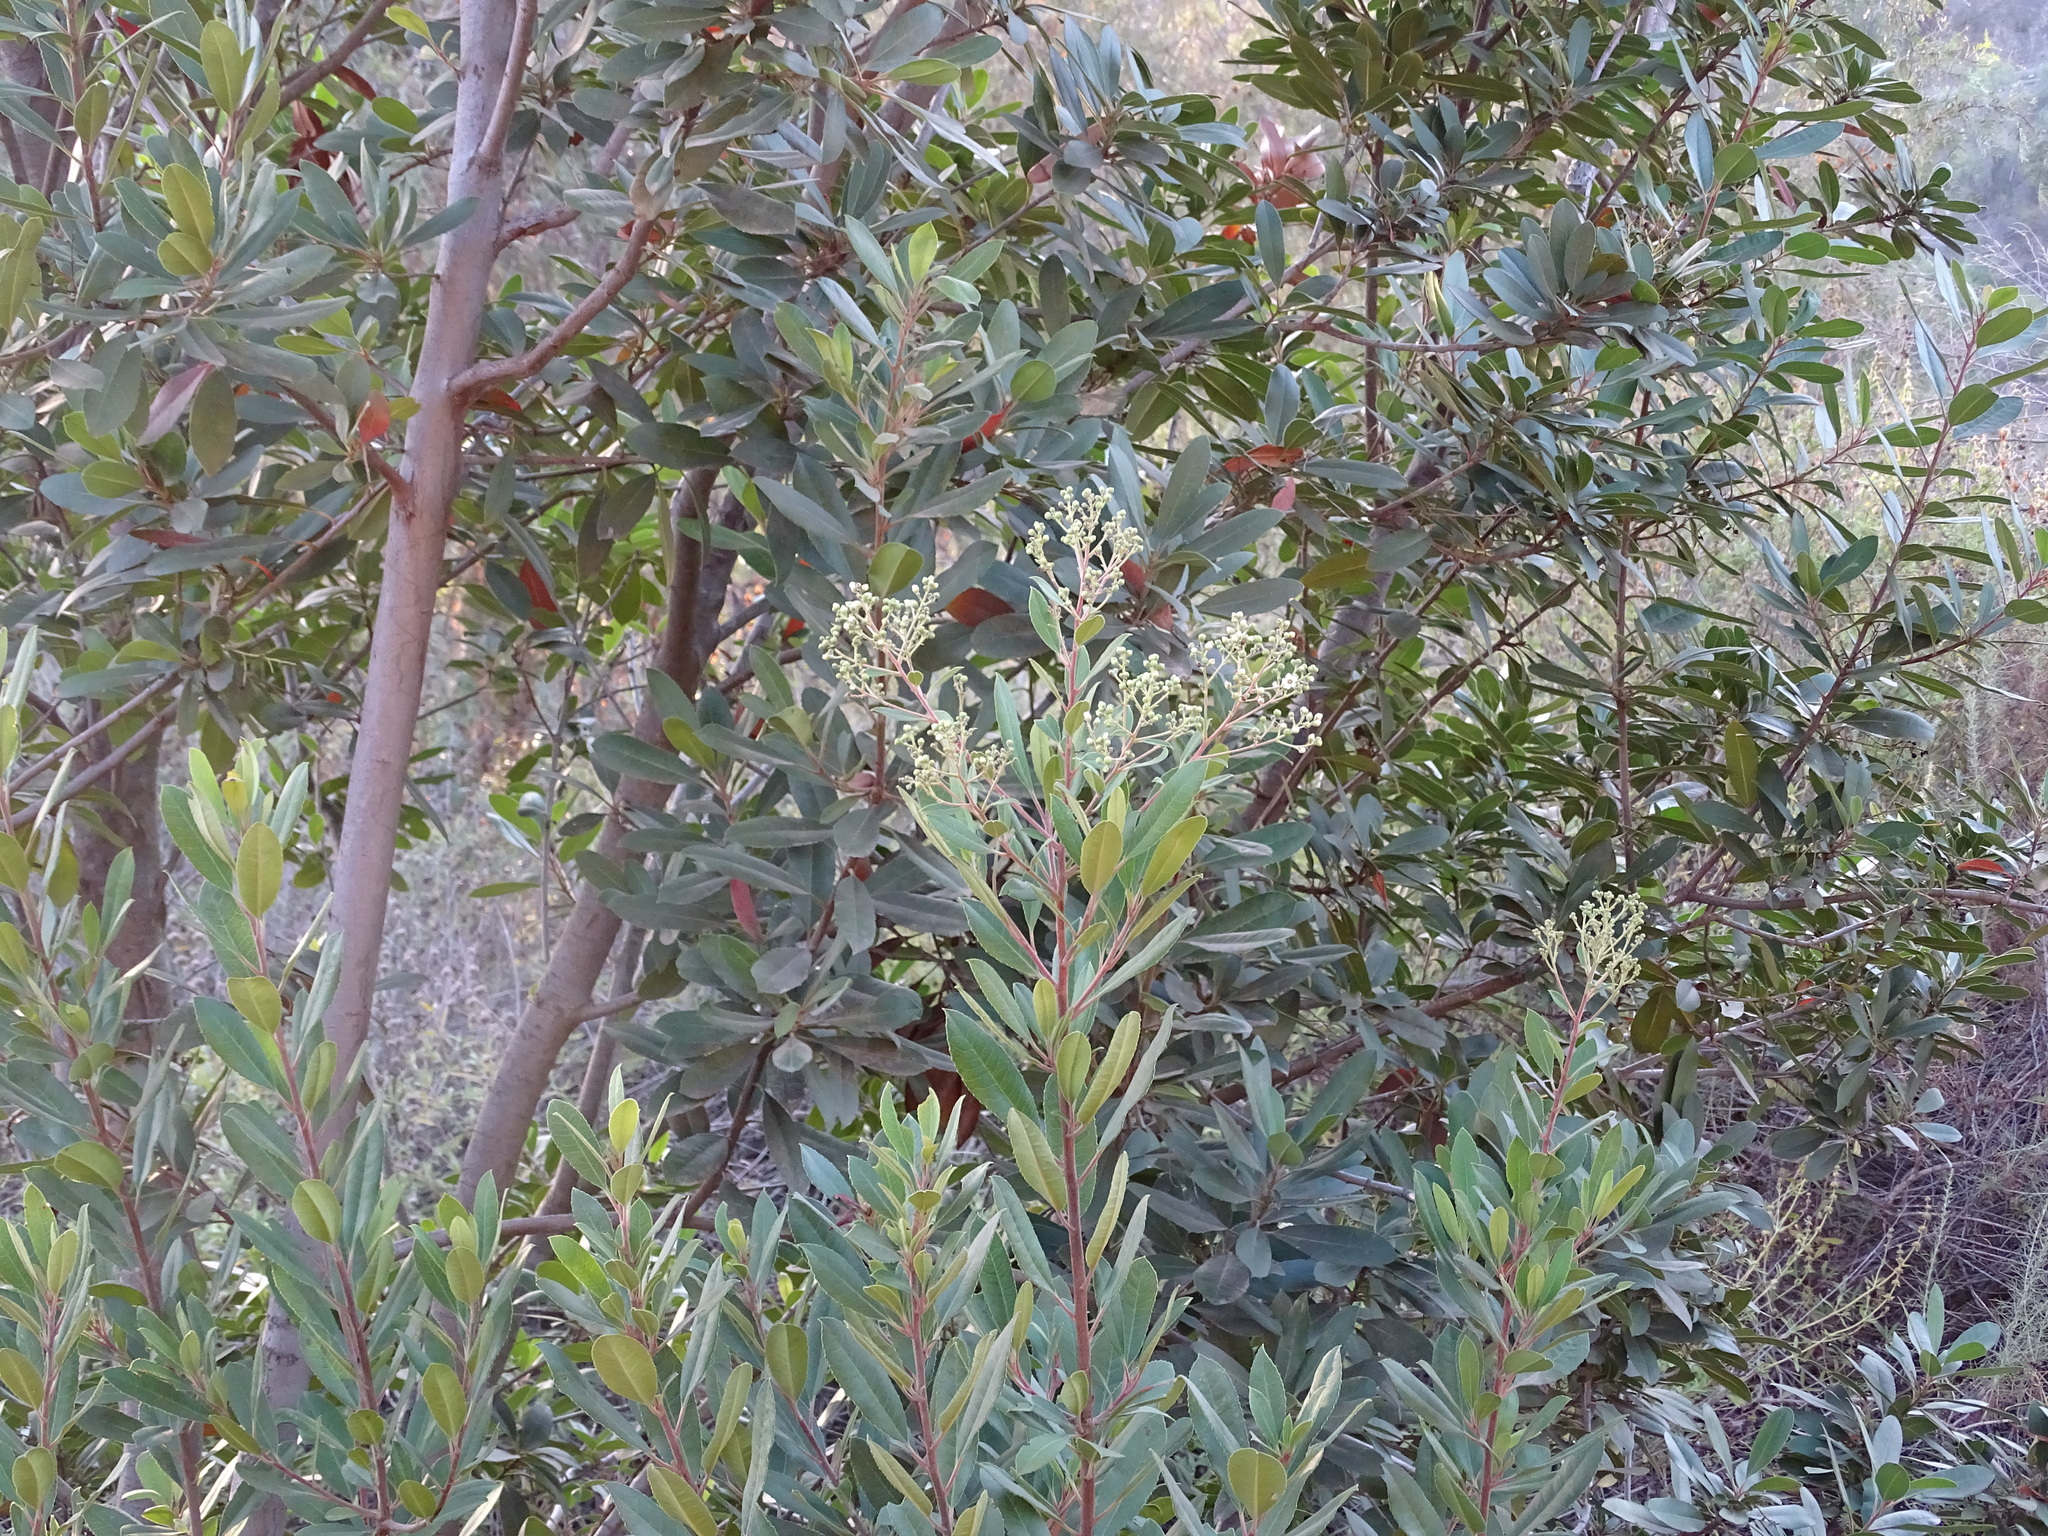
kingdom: Plantae
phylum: Tracheophyta
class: Magnoliopsida
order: Rosales
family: Rosaceae
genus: Heteromeles
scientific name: Heteromeles arbutifolia
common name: California-holly
